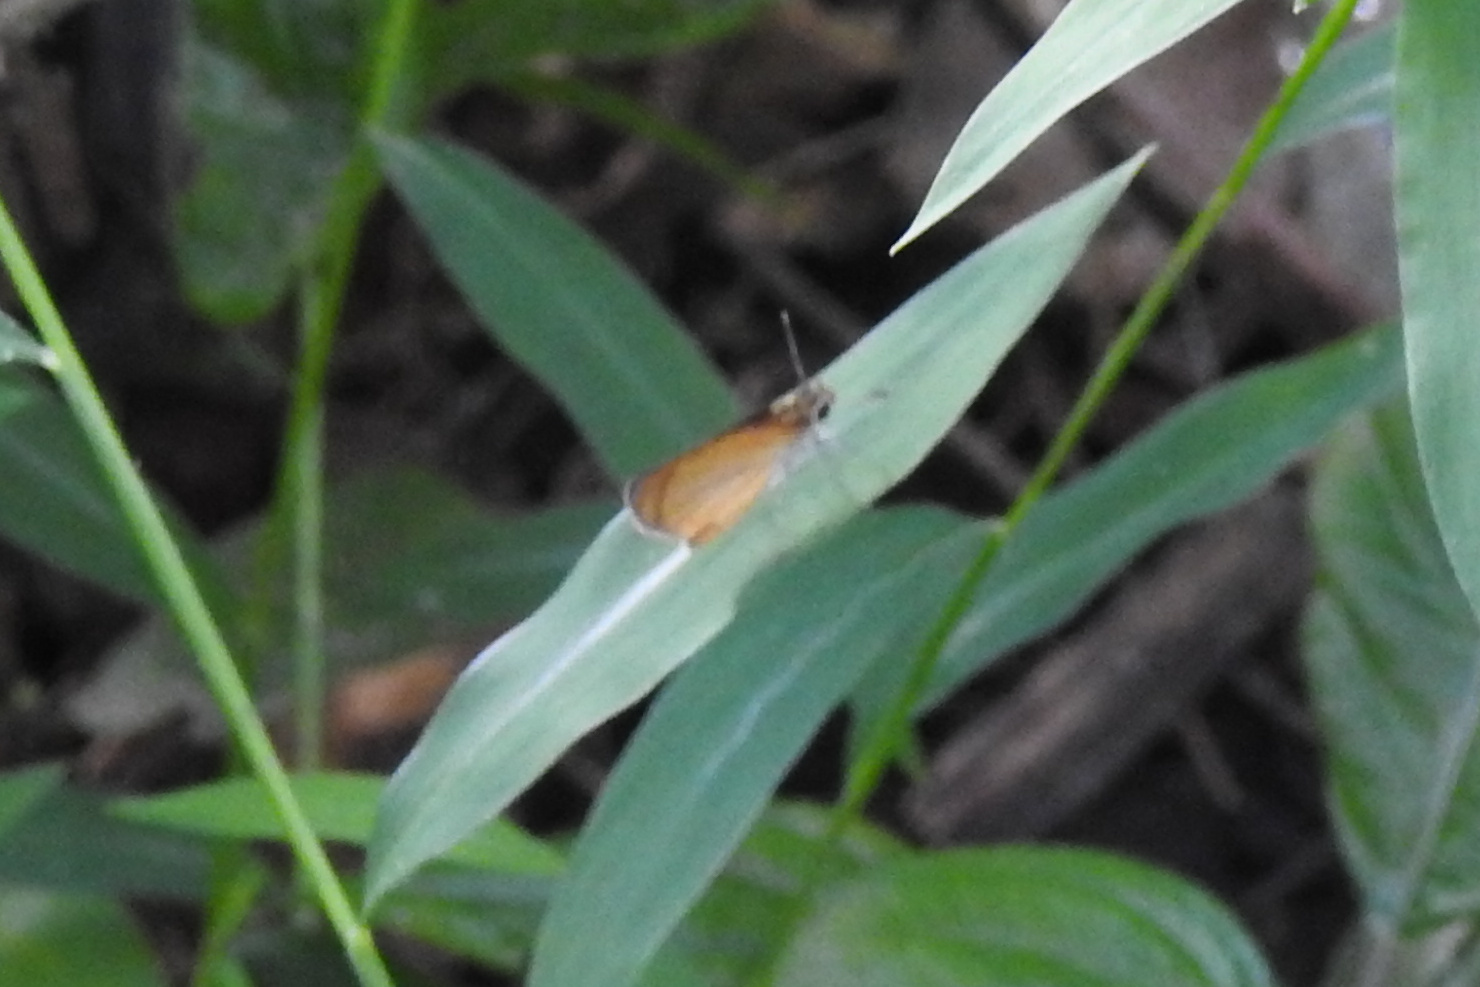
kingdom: Animalia
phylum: Arthropoda
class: Insecta
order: Lepidoptera
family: Hesperiidae
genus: Ancyloxypha
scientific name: Ancyloxypha numitor
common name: Least skipper
